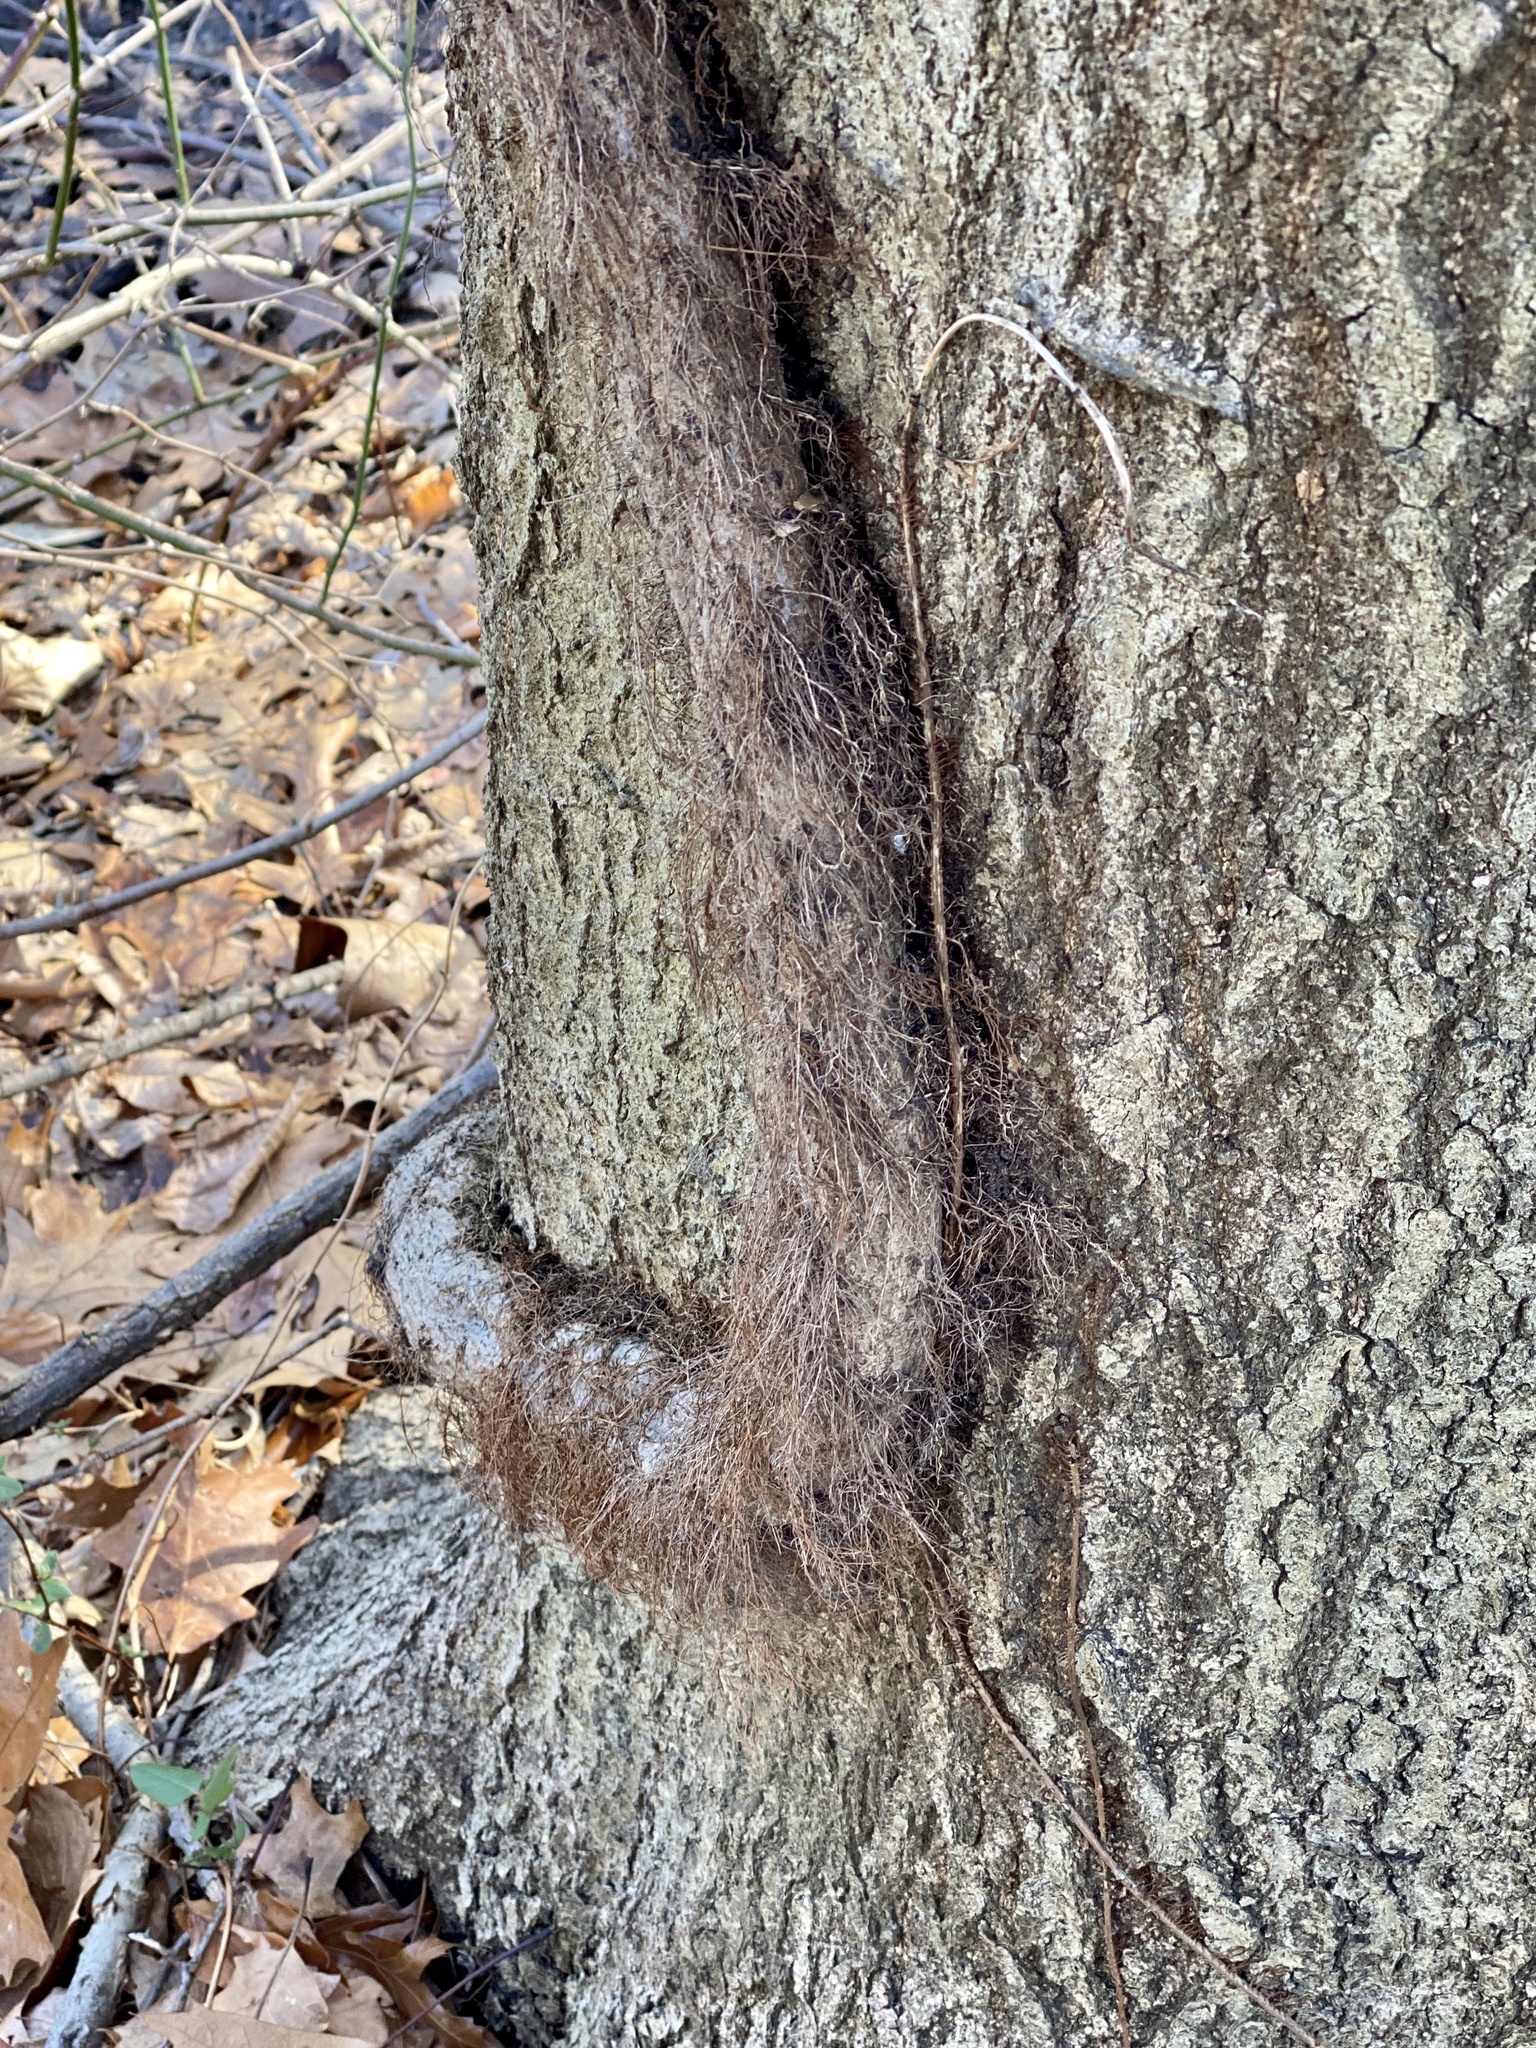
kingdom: Plantae
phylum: Tracheophyta
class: Magnoliopsida
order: Sapindales
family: Anacardiaceae
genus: Toxicodendron
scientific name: Toxicodendron radicans
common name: Poison ivy
